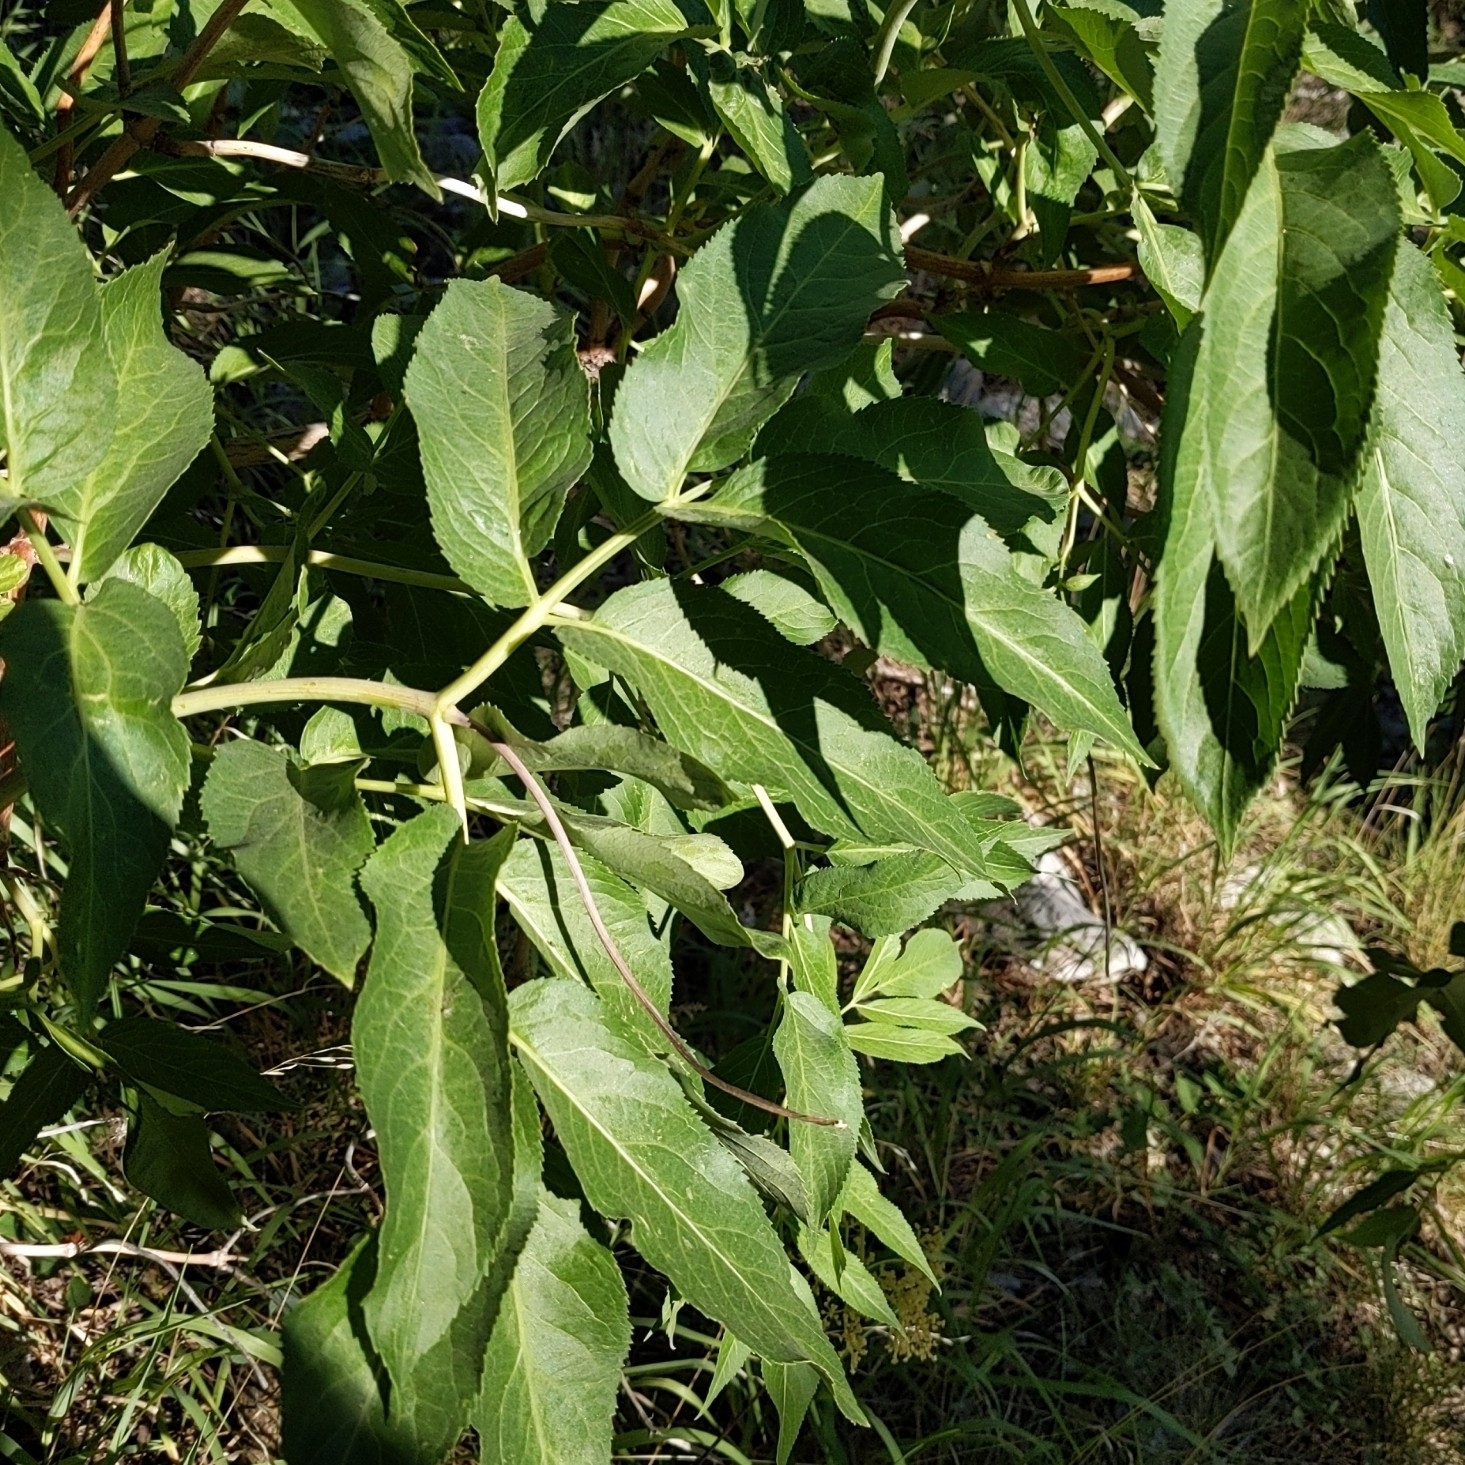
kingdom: Plantae
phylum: Tracheophyta
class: Magnoliopsida
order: Dipsacales
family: Viburnaceae
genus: Sambucus
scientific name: Sambucus cerulea
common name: Blue elder
